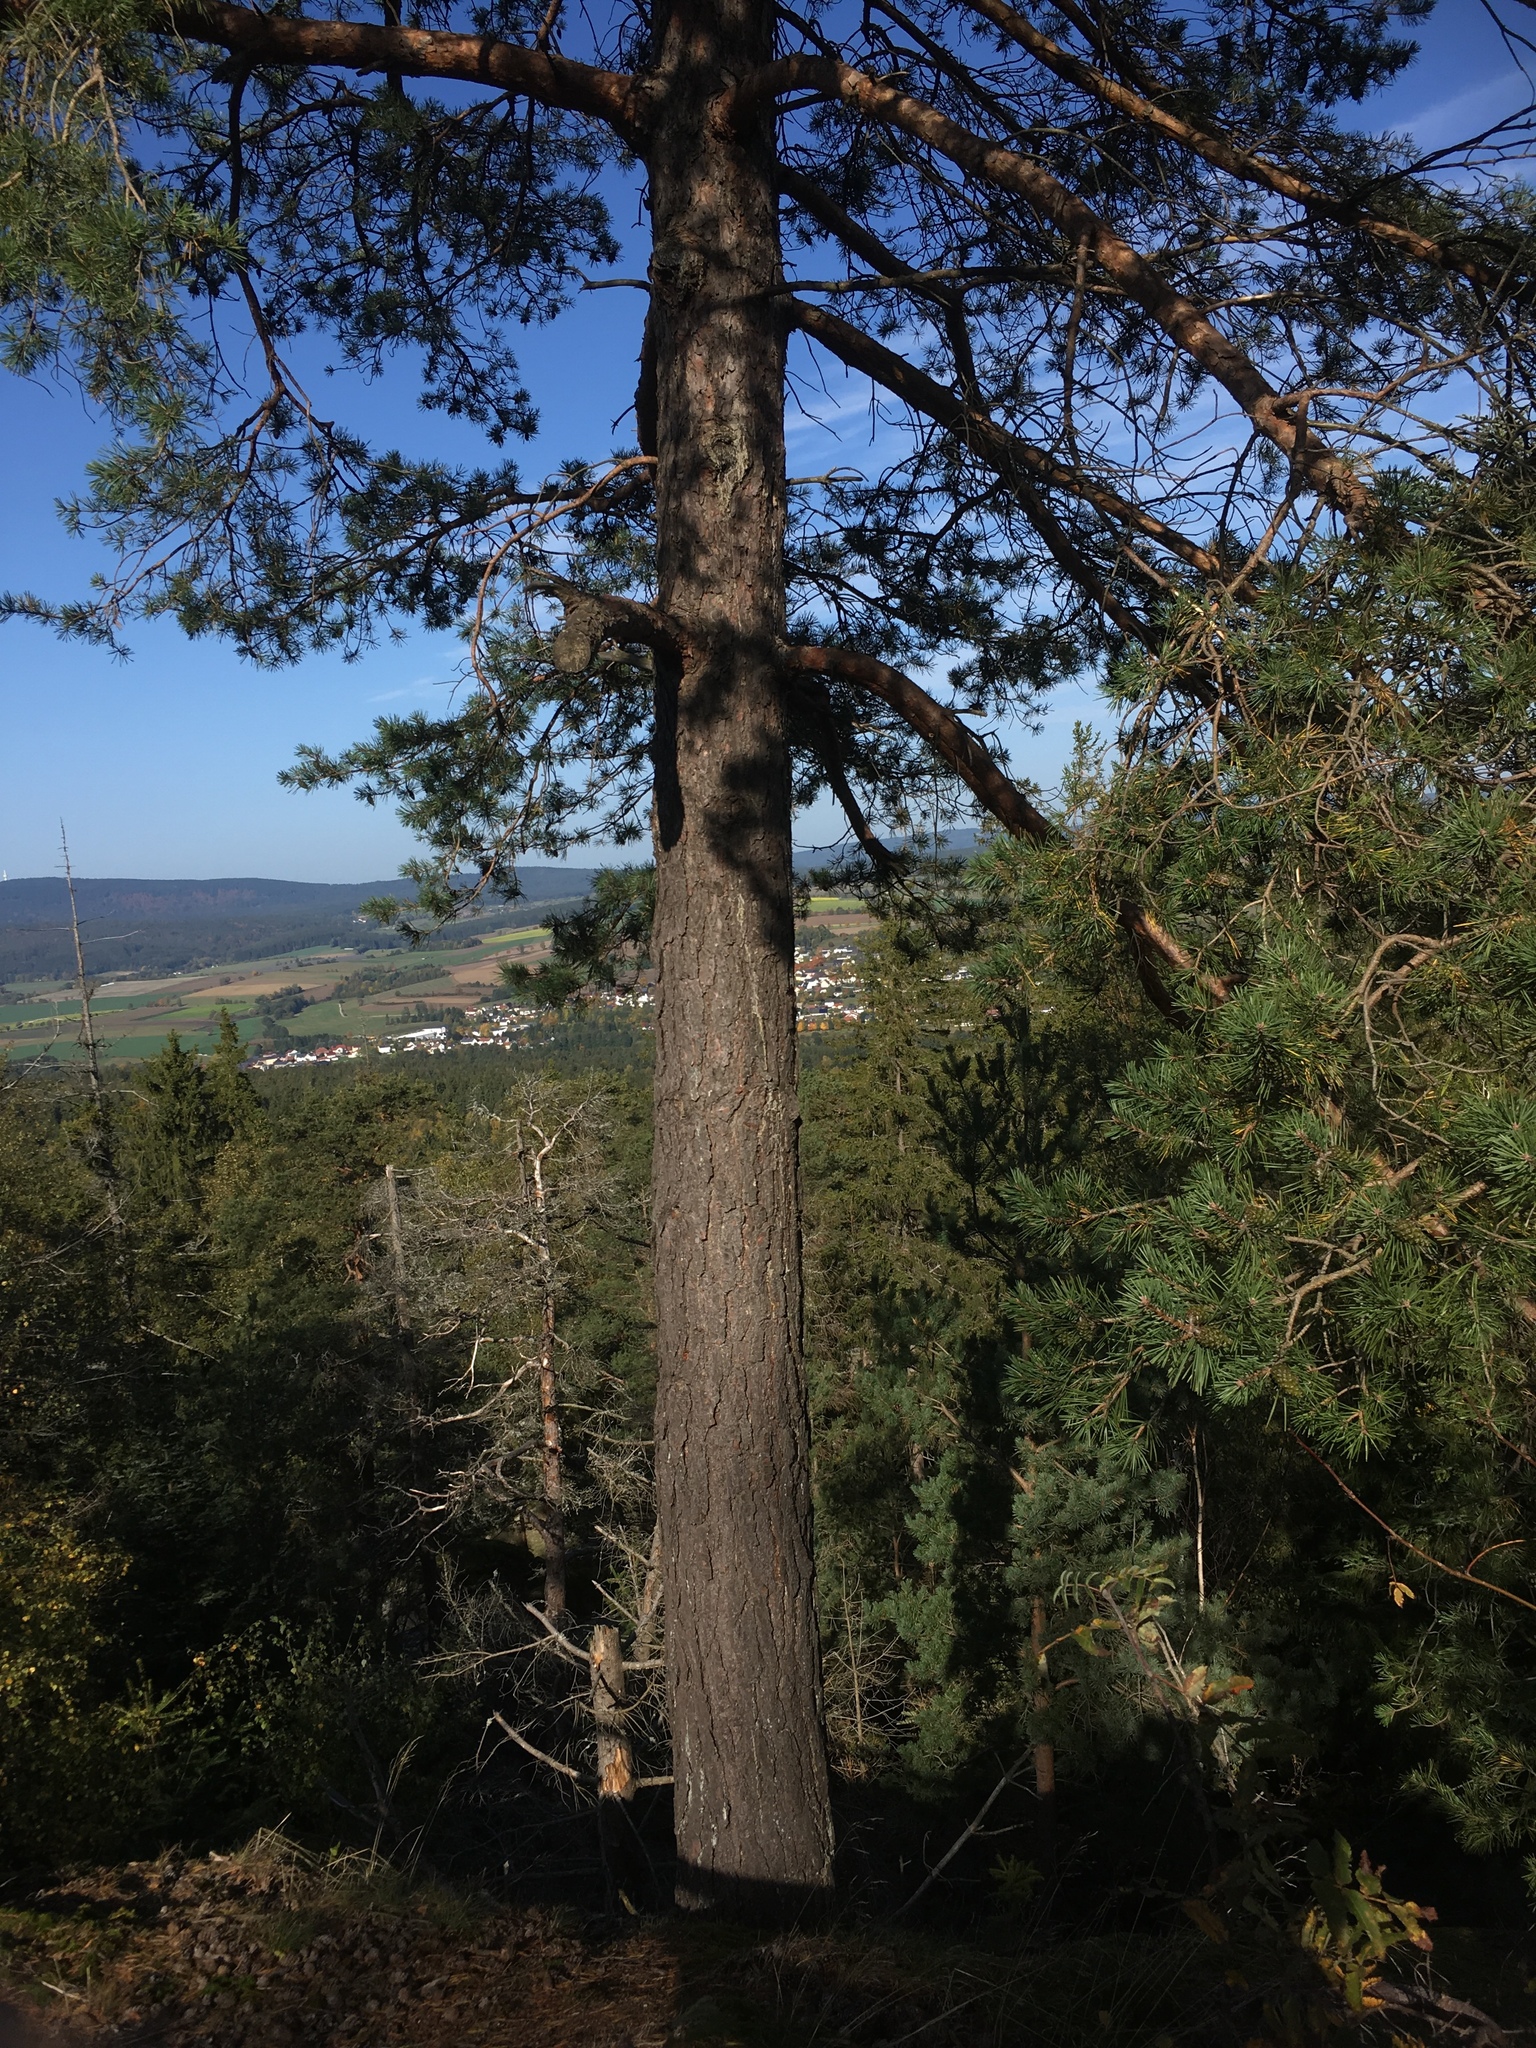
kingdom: Plantae
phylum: Tracheophyta
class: Pinopsida
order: Pinales
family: Pinaceae
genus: Pinus
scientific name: Pinus sylvestris
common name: Scots pine
